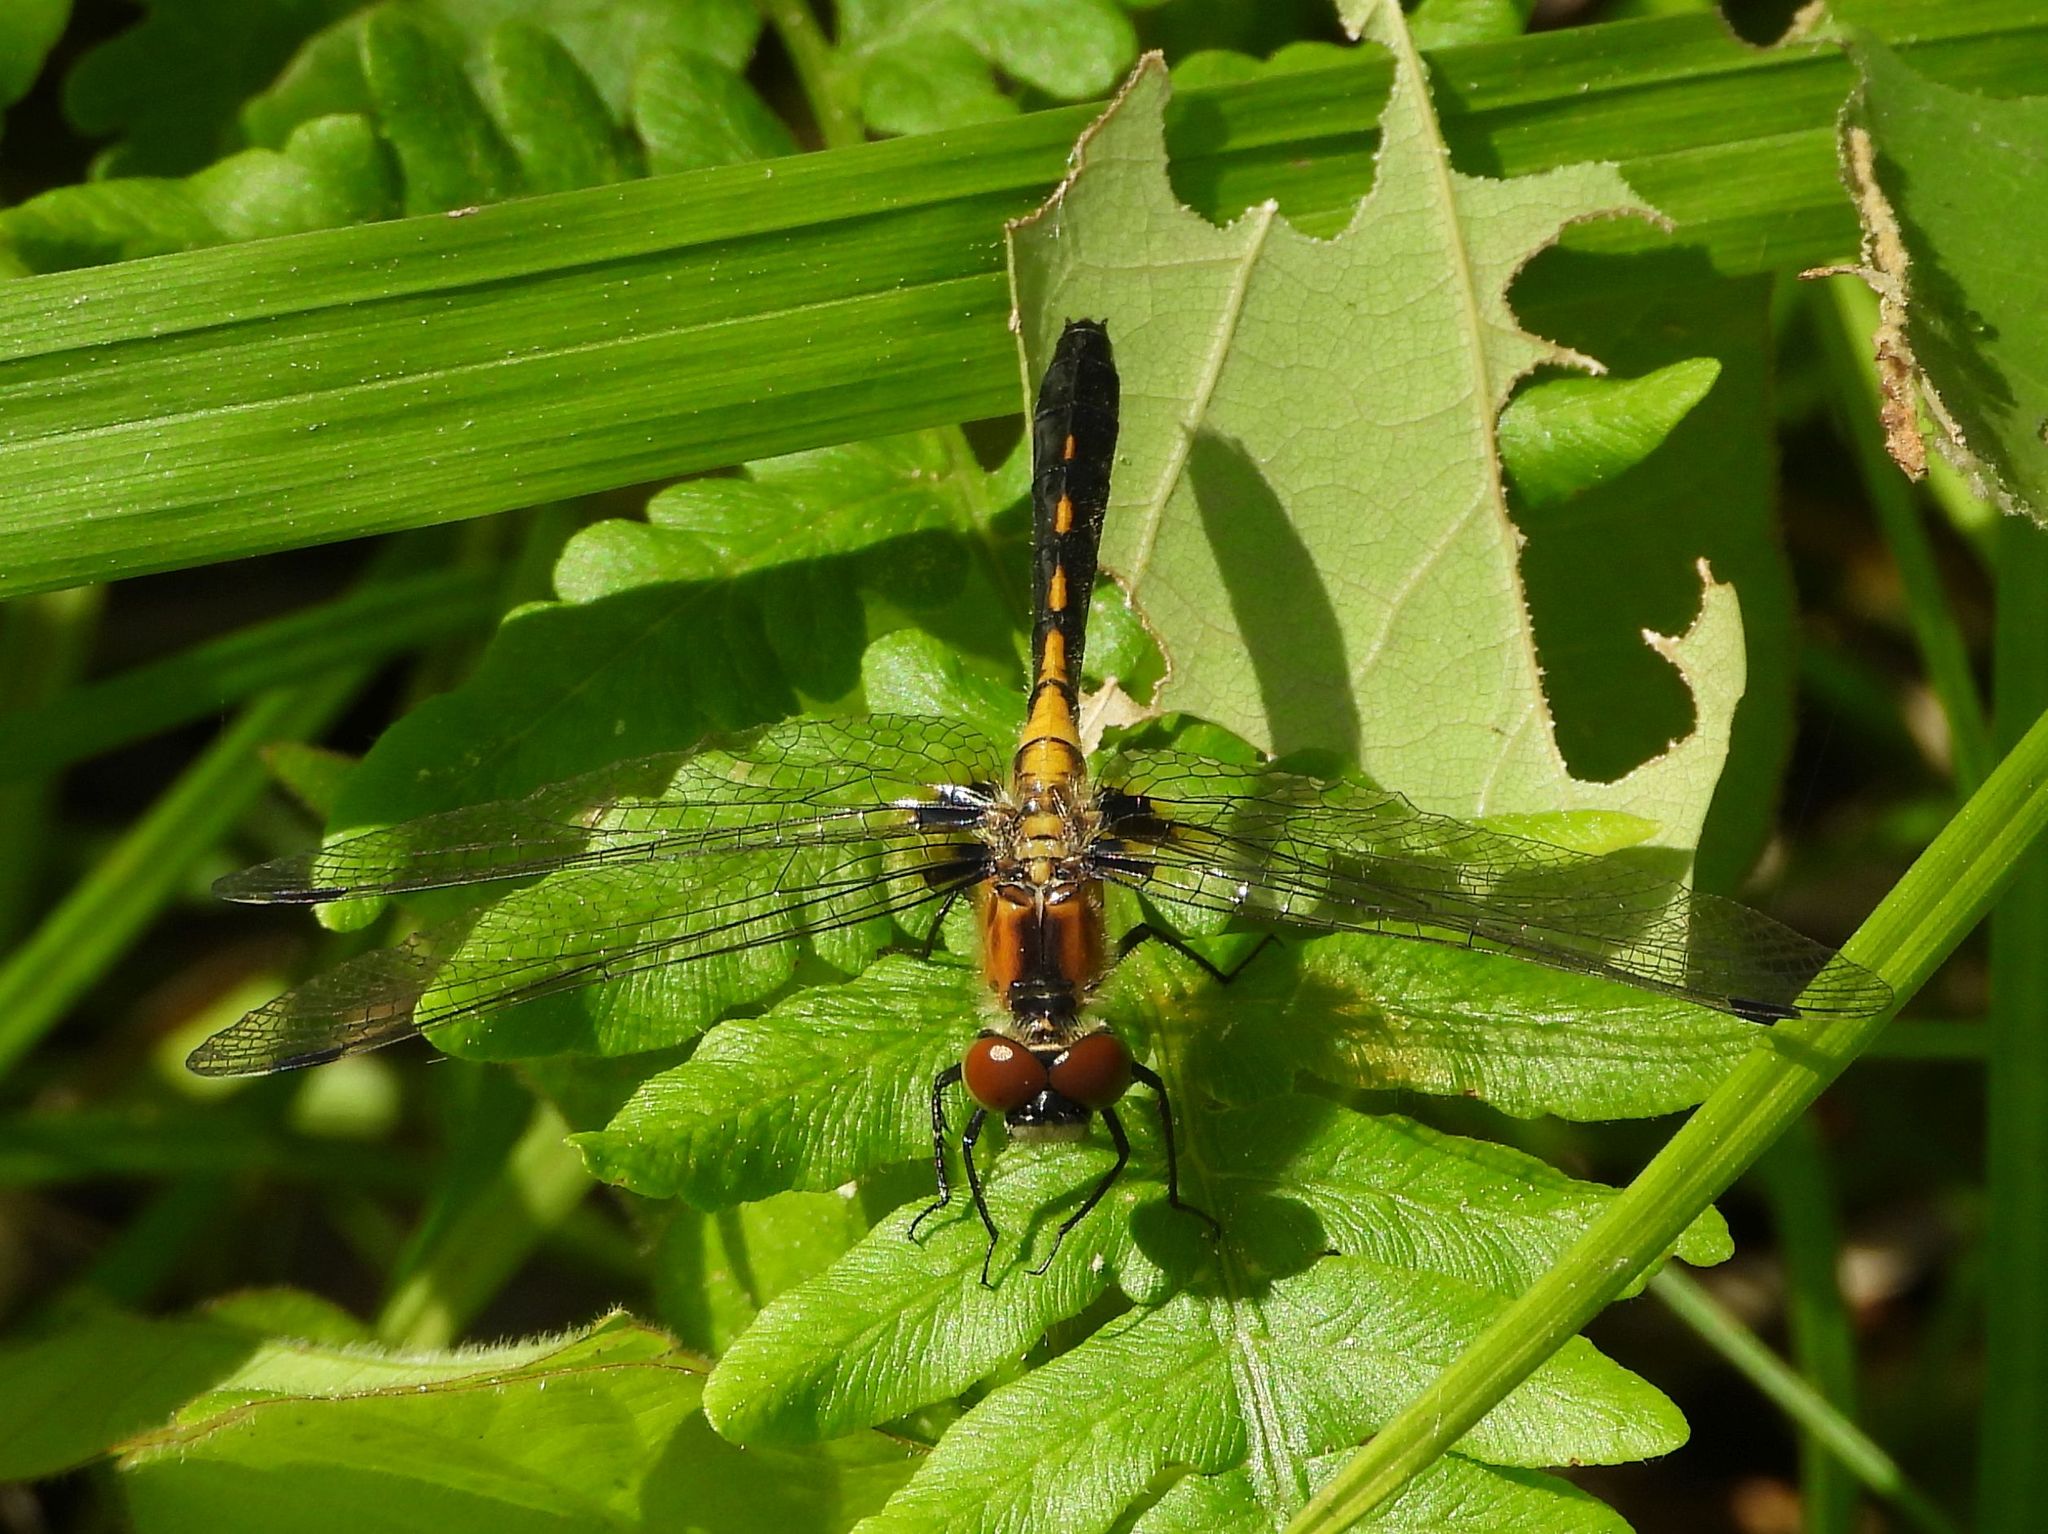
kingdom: Animalia
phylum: Arthropoda
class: Insecta
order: Odonata
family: Libellulidae
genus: Leucorrhinia
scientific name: Leucorrhinia frigida
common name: Frosted whiteface
